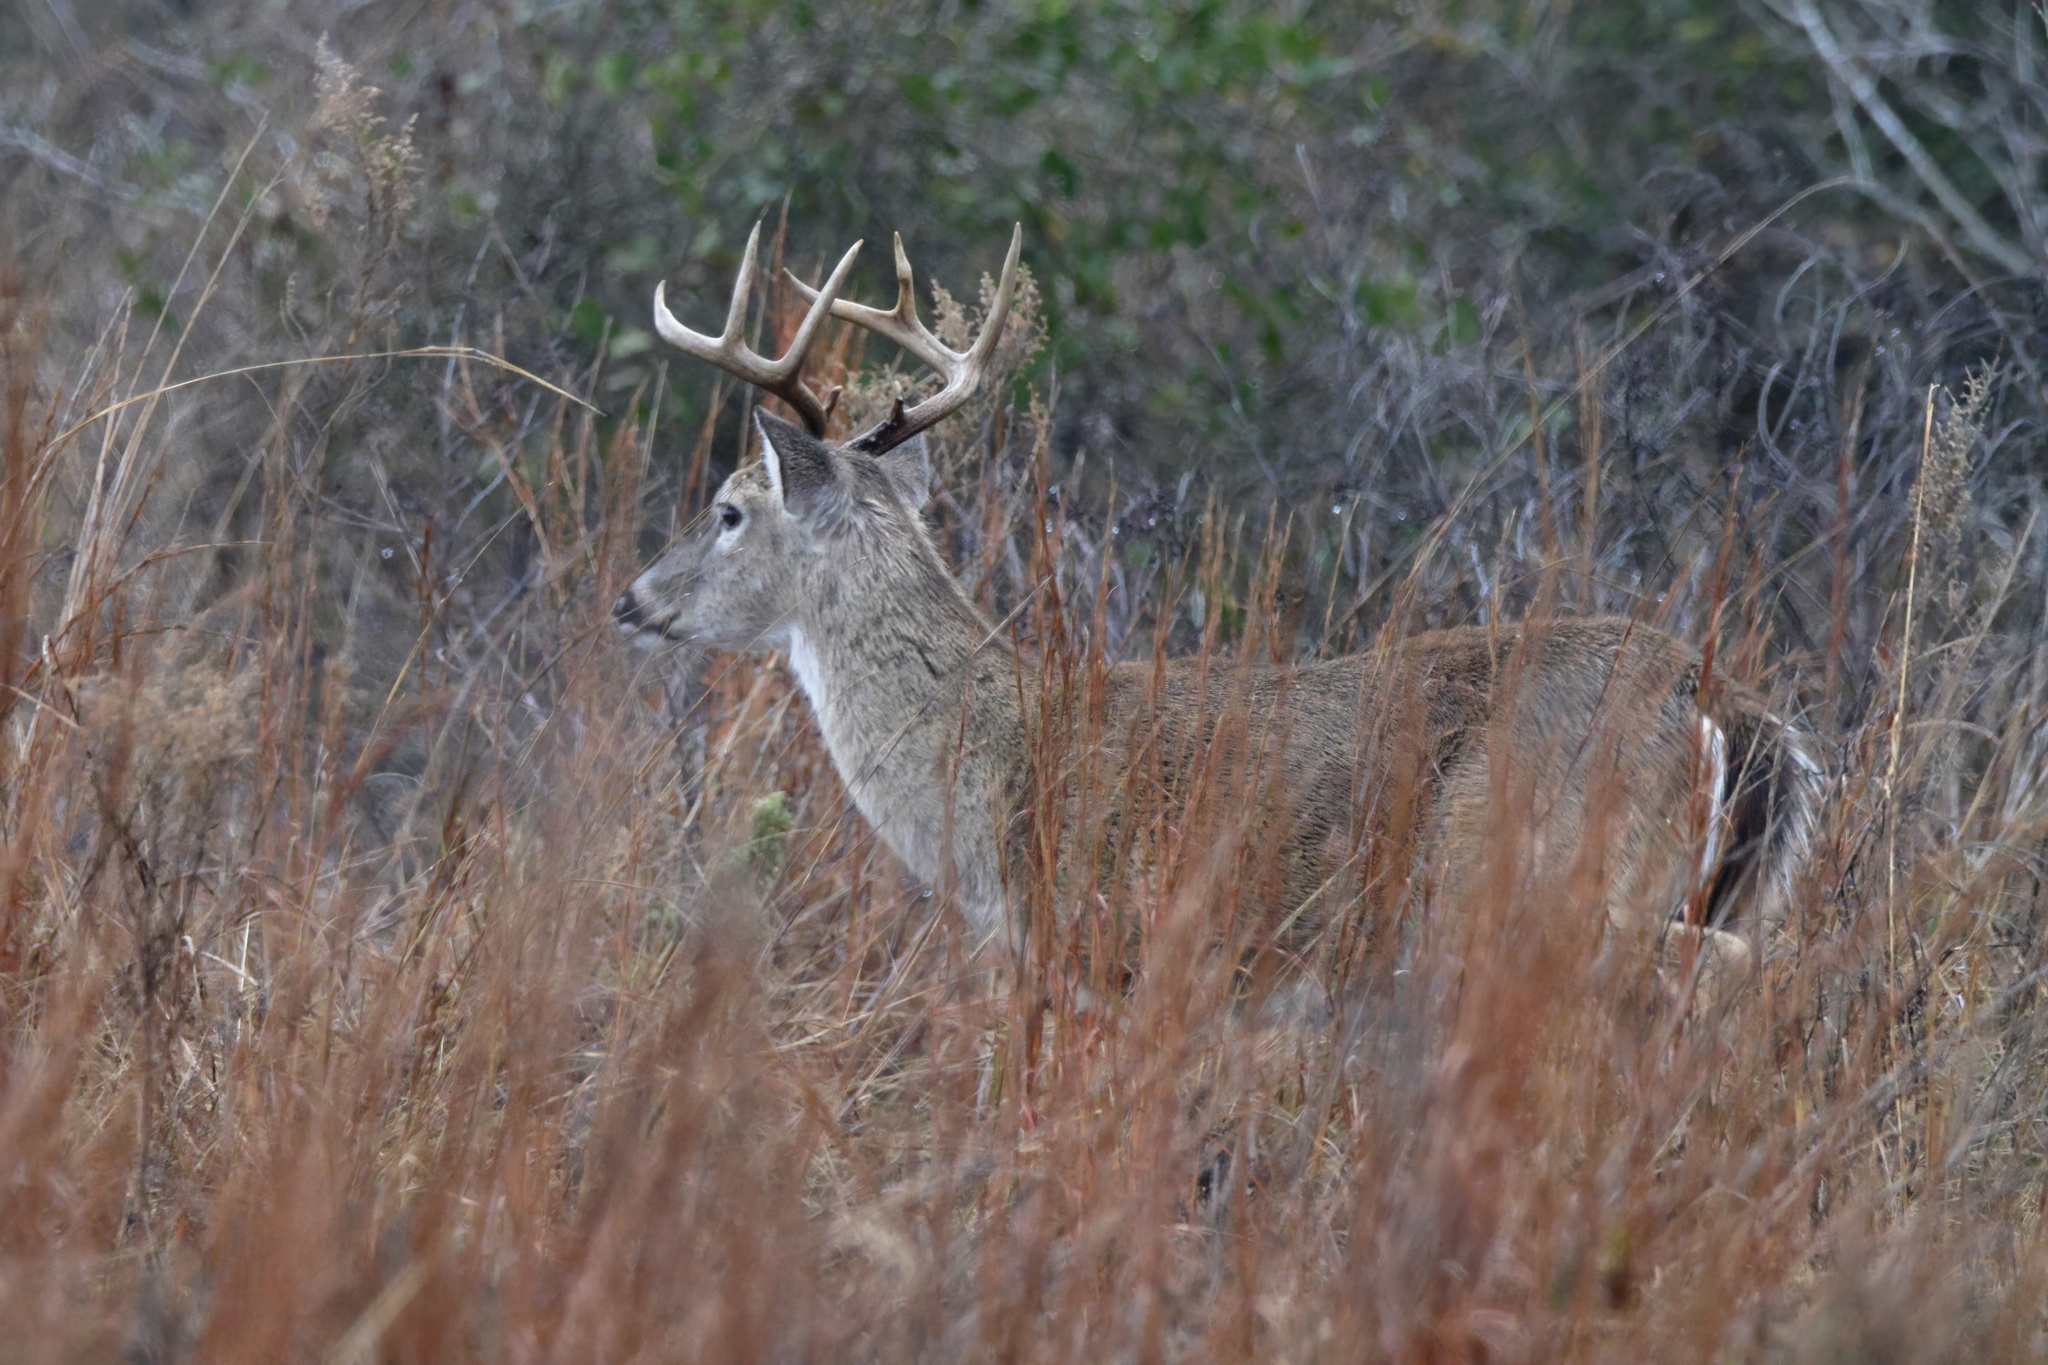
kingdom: Animalia
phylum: Chordata
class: Mammalia
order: Artiodactyla
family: Cervidae
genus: Odocoileus
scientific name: Odocoileus virginianus
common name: White-tailed deer
